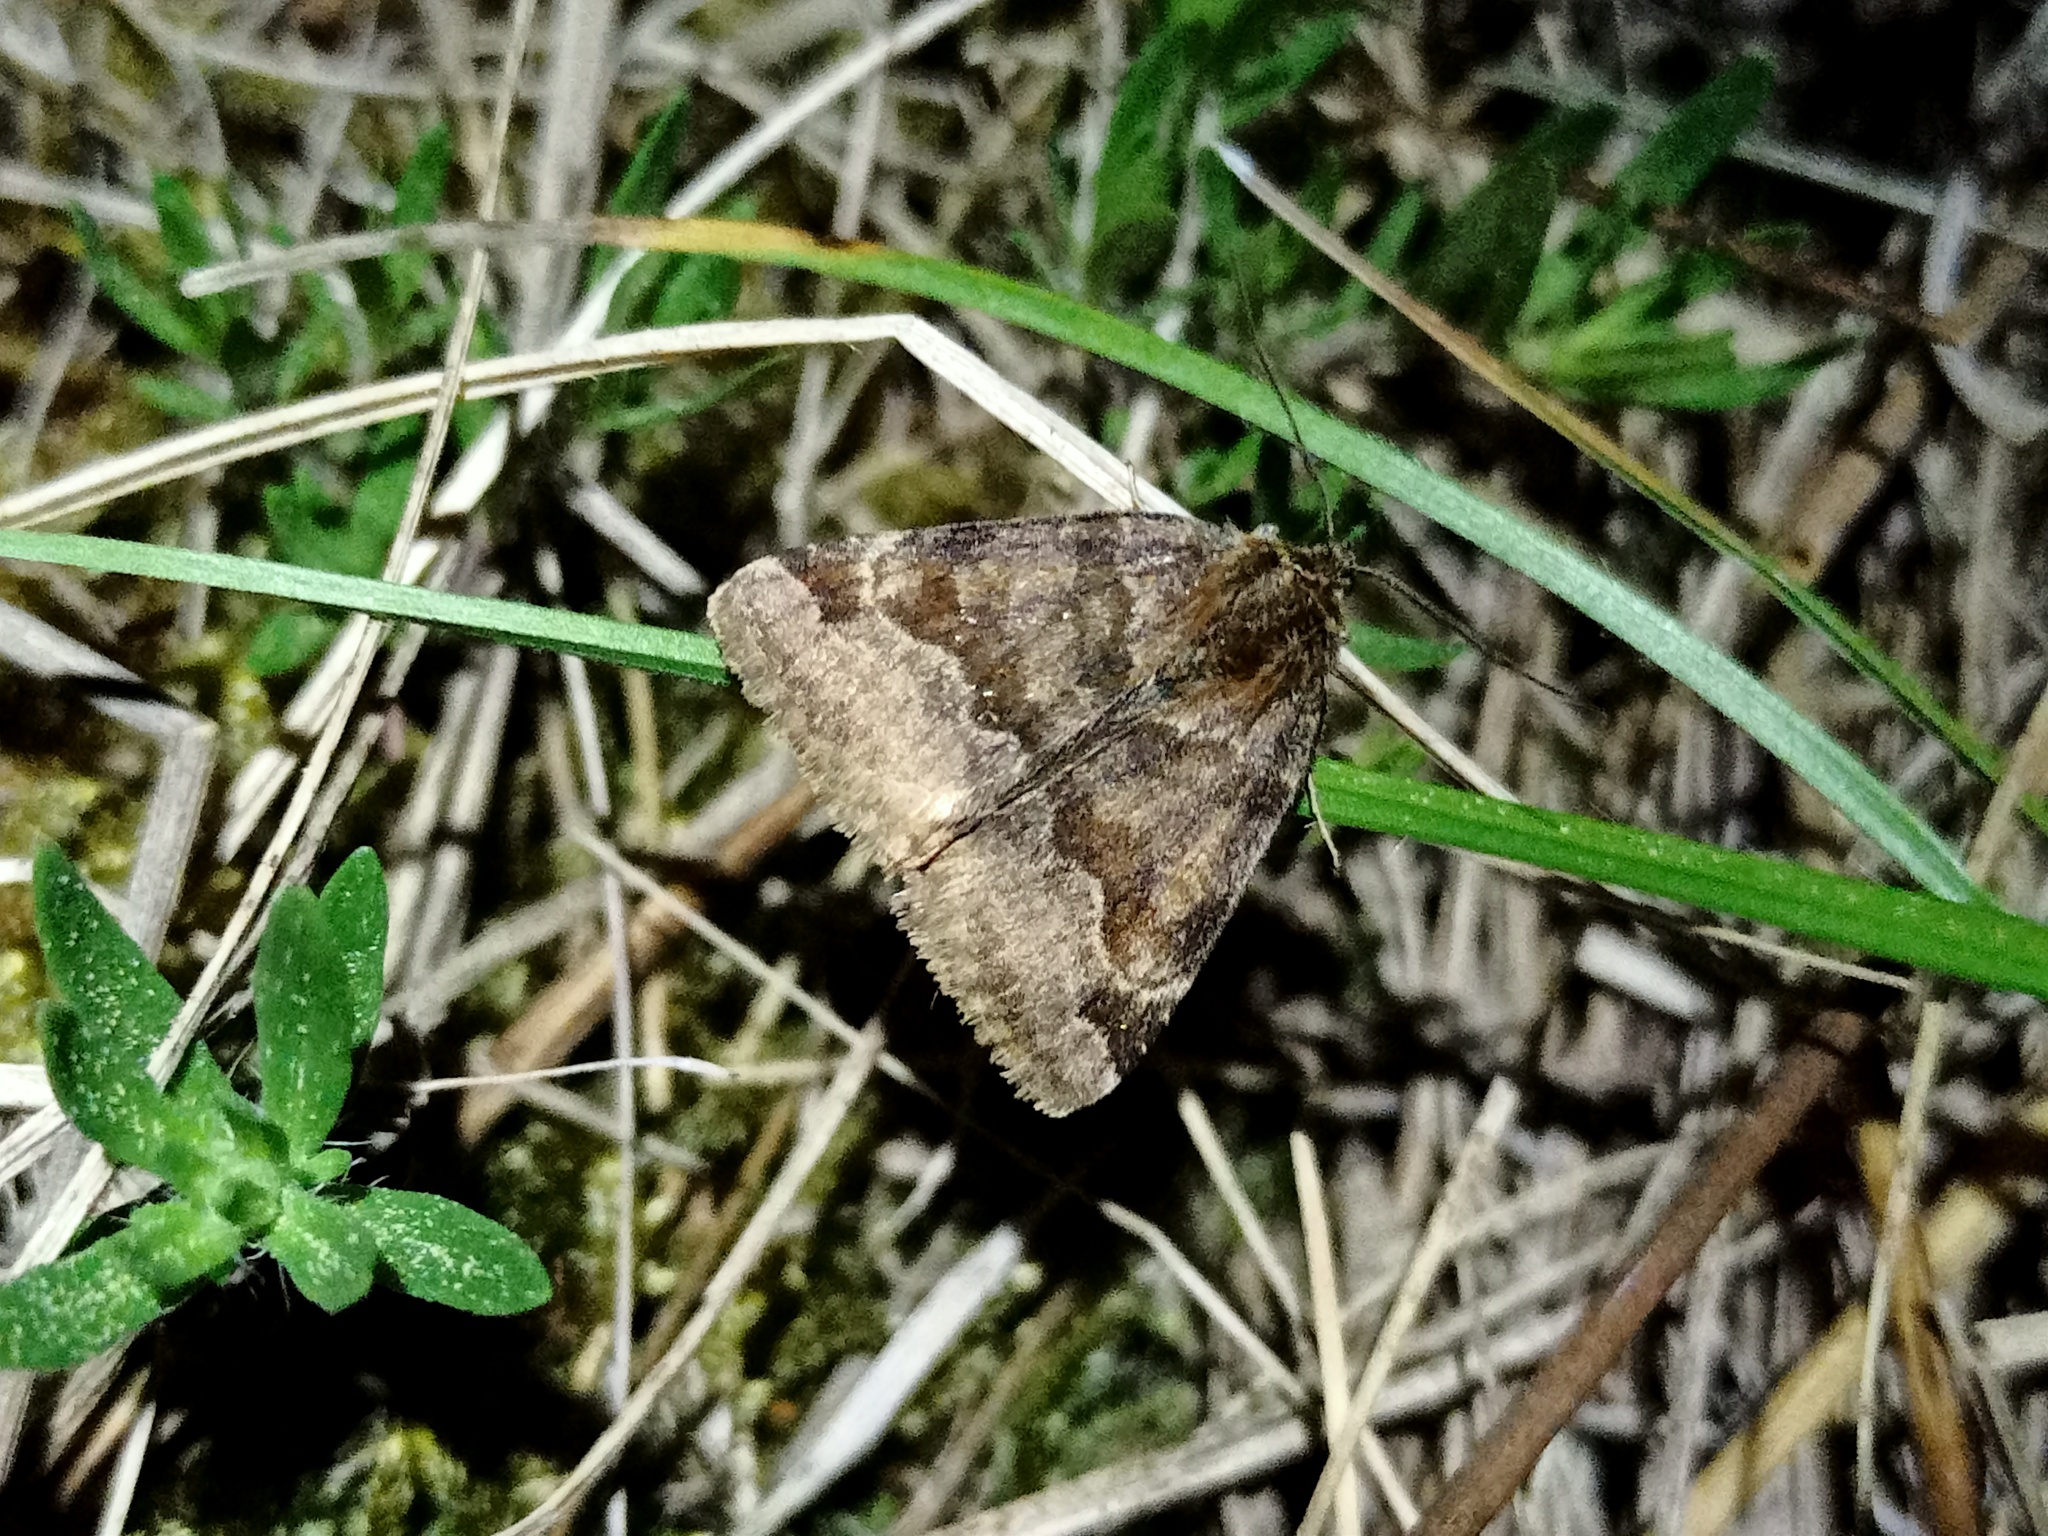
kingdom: Animalia
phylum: Arthropoda
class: Insecta
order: Lepidoptera
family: Erebidae
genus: Euclidia
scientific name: Euclidia glyphica
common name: Burnet companion
